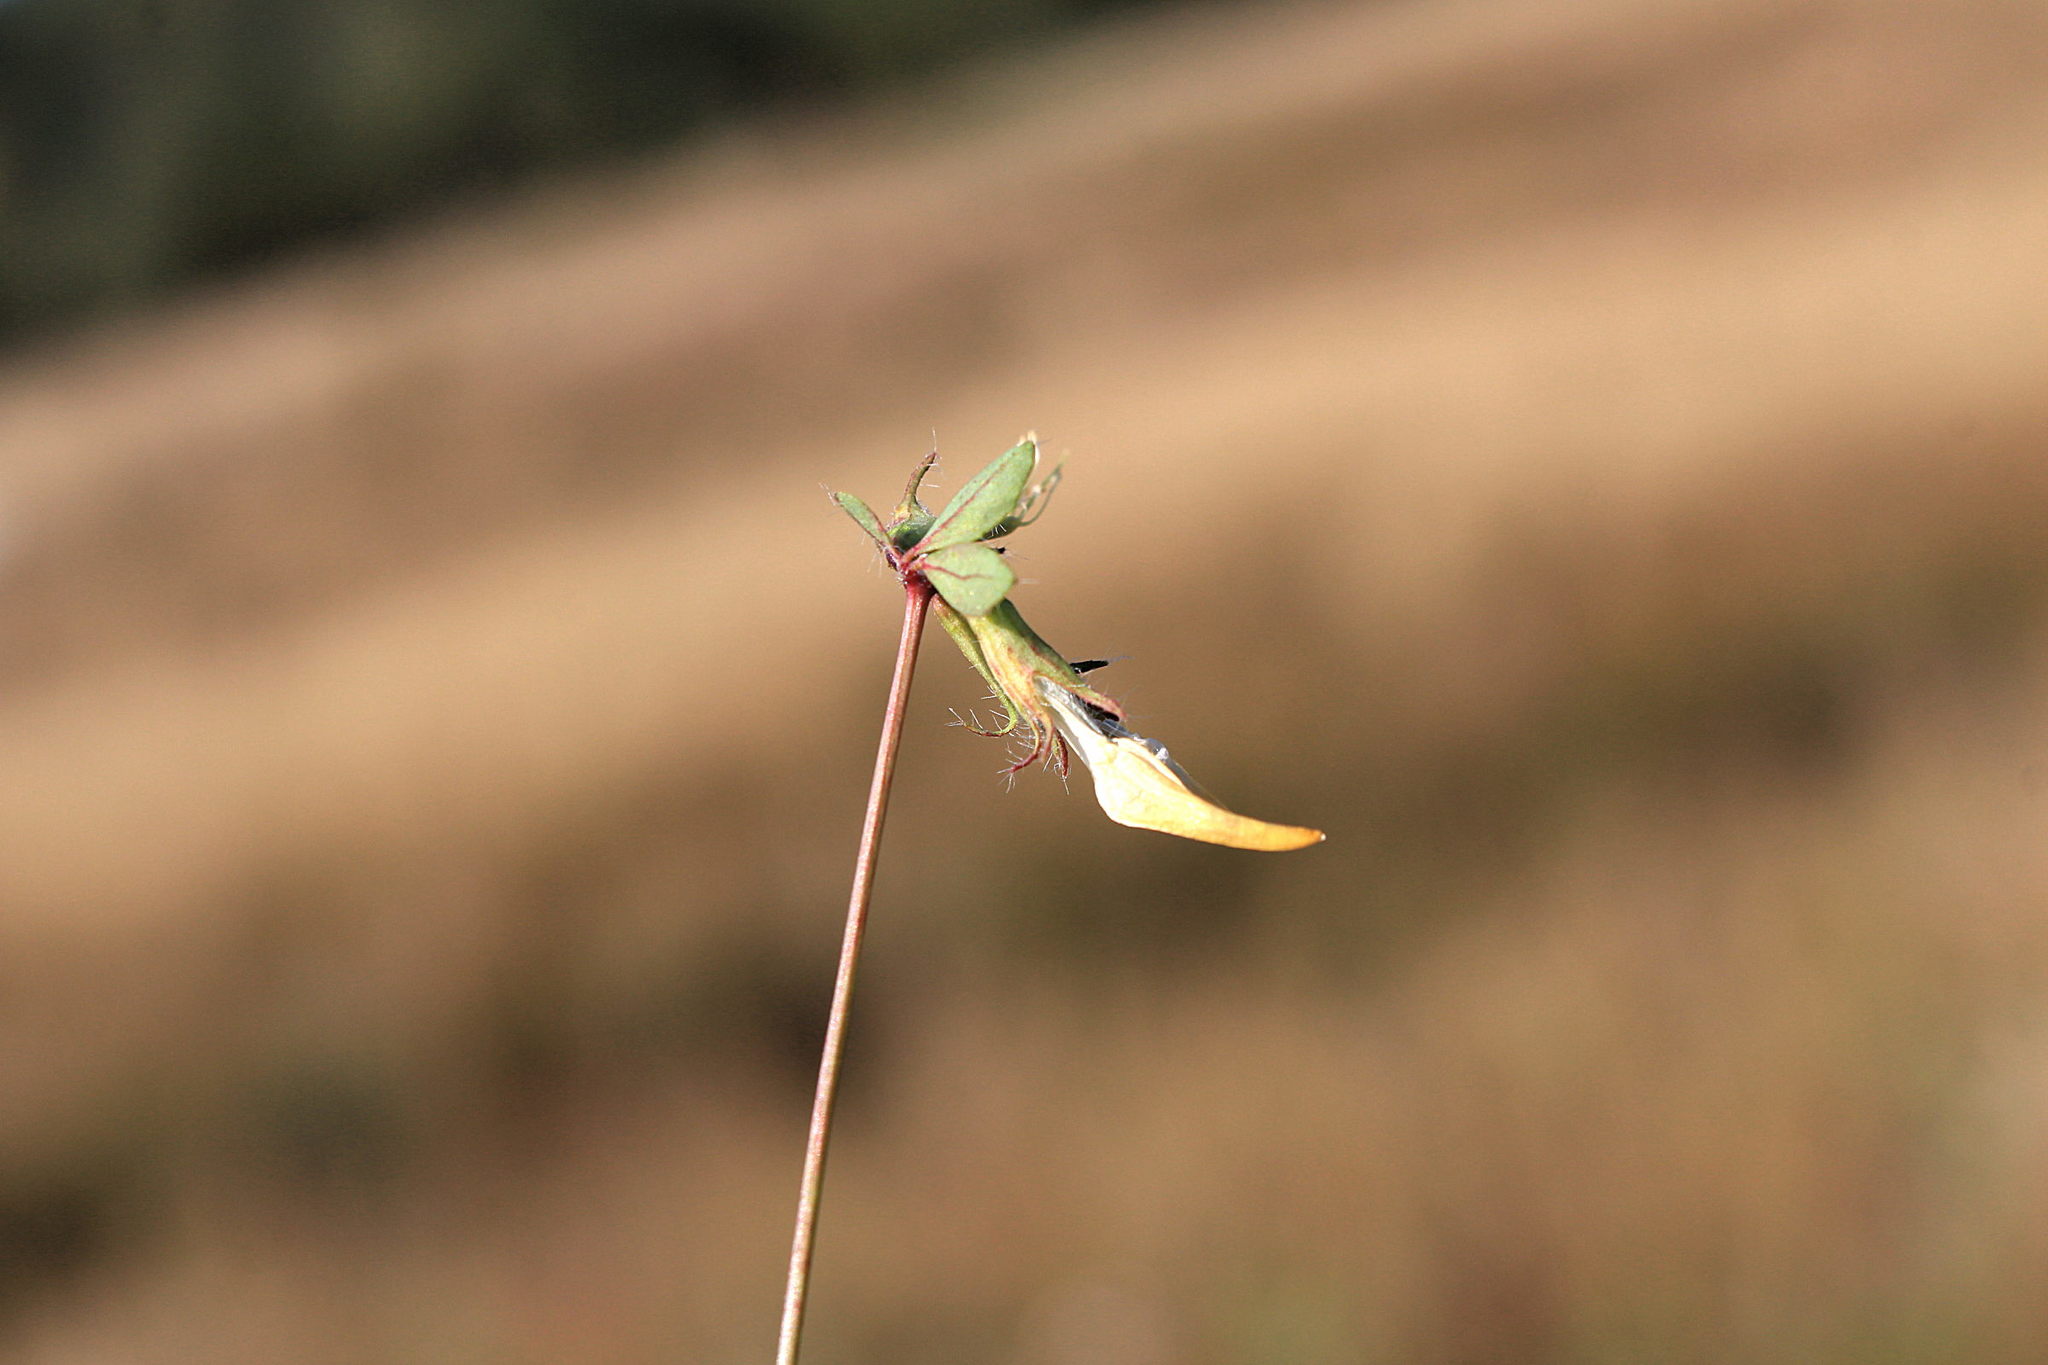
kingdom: Plantae
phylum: Tracheophyta
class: Magnoliopsida
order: Fabales
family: Fabaceae
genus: Lotus
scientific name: Lotus pedunculatus
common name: Greater birdsfoot-trefoil
